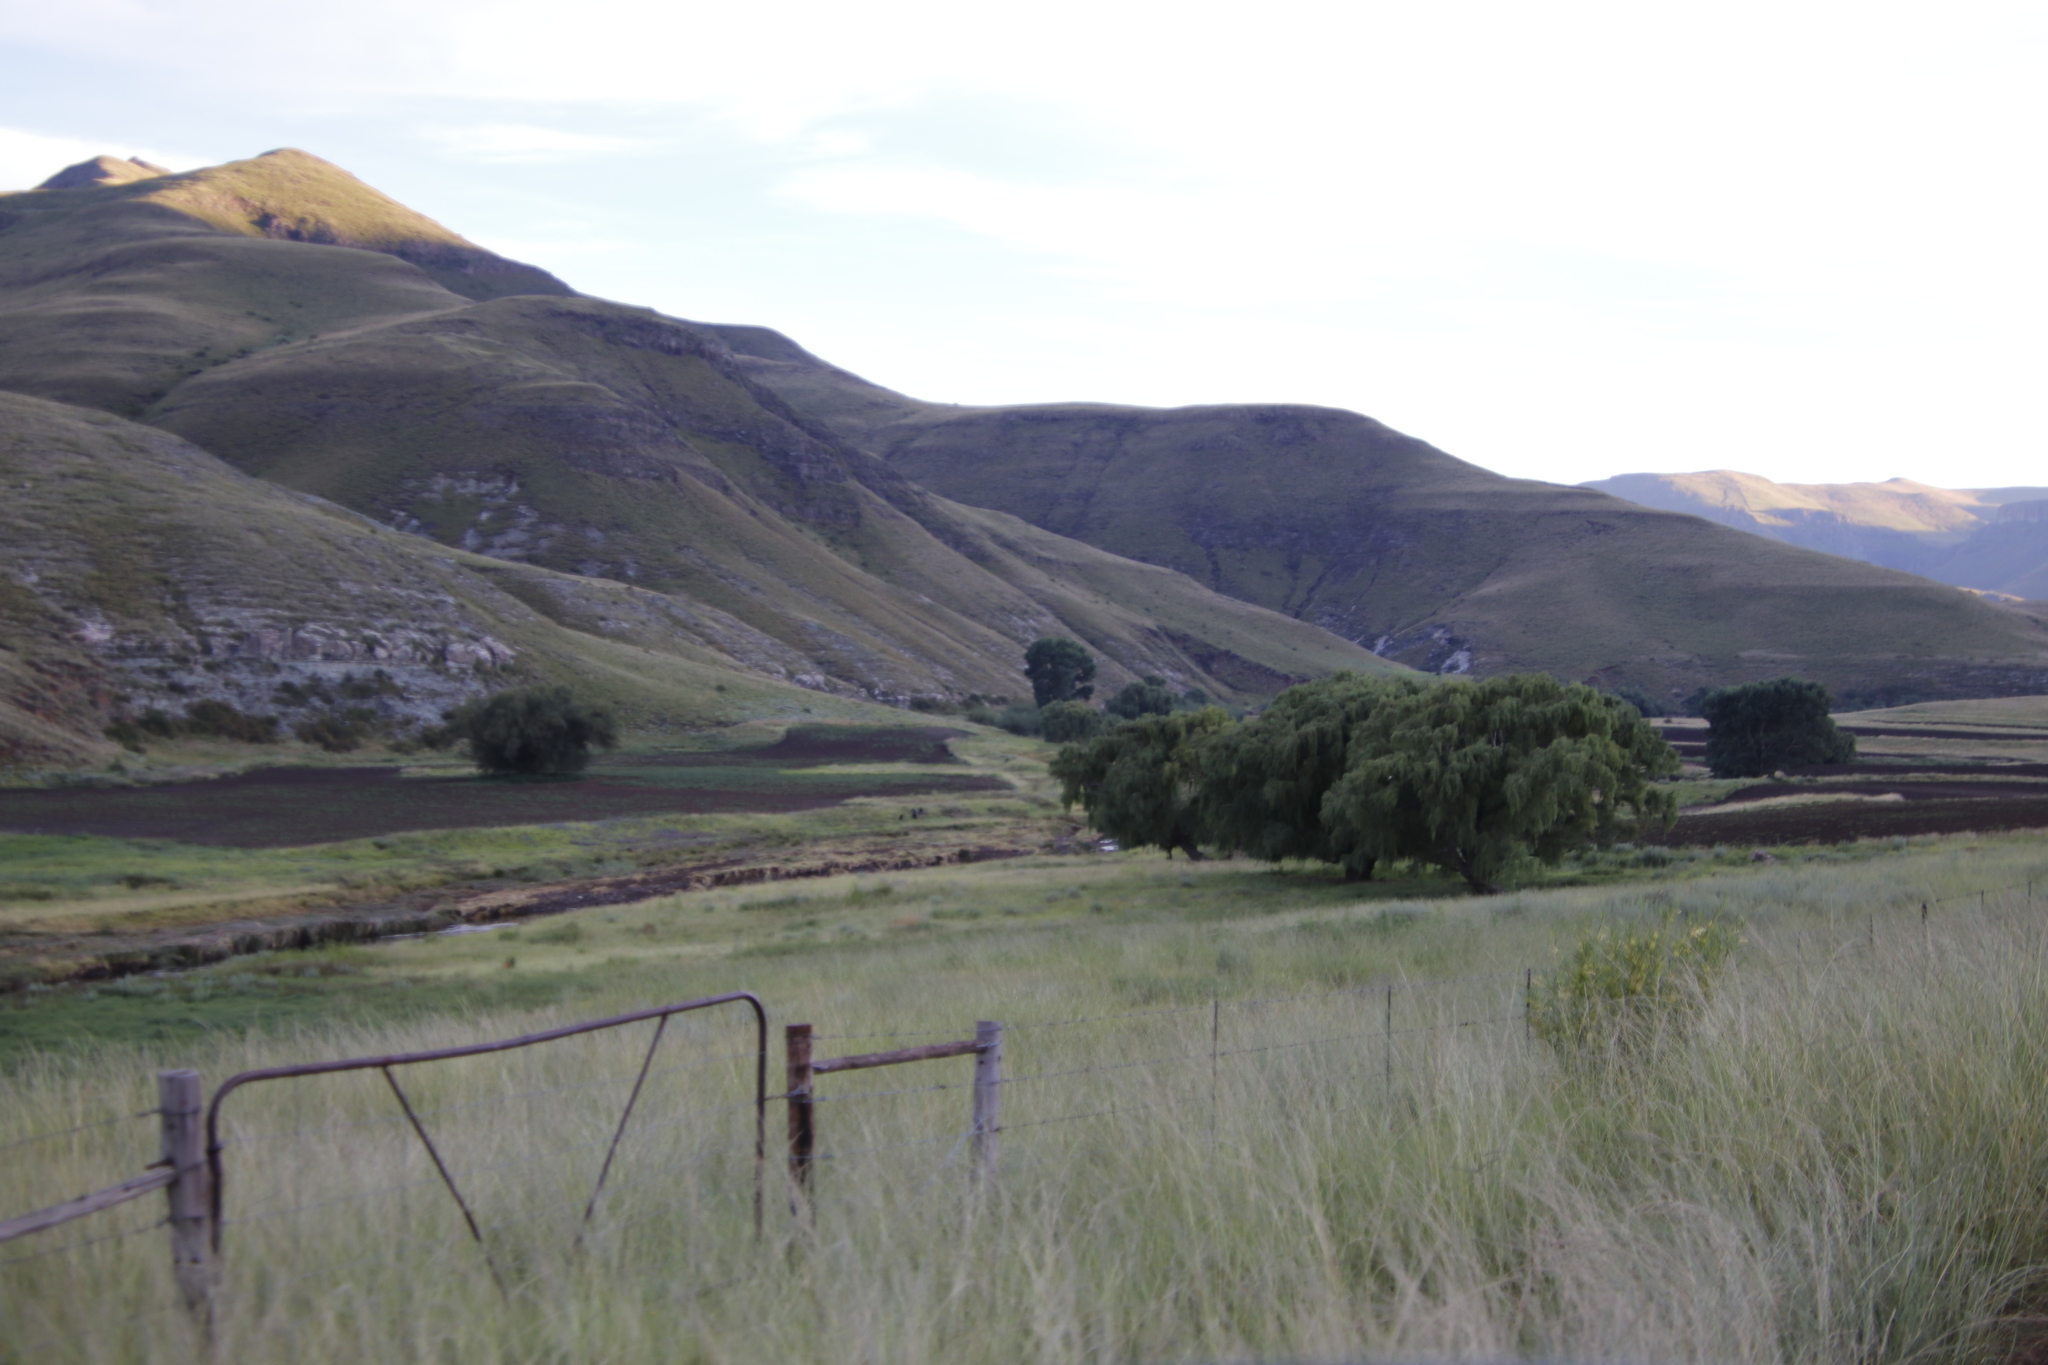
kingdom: Plantae
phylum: Tracheophyta
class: Magnoliopsida
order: Malpighiales
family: Salicaceae
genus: Salix
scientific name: Salix babylonica
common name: Weeping willow
